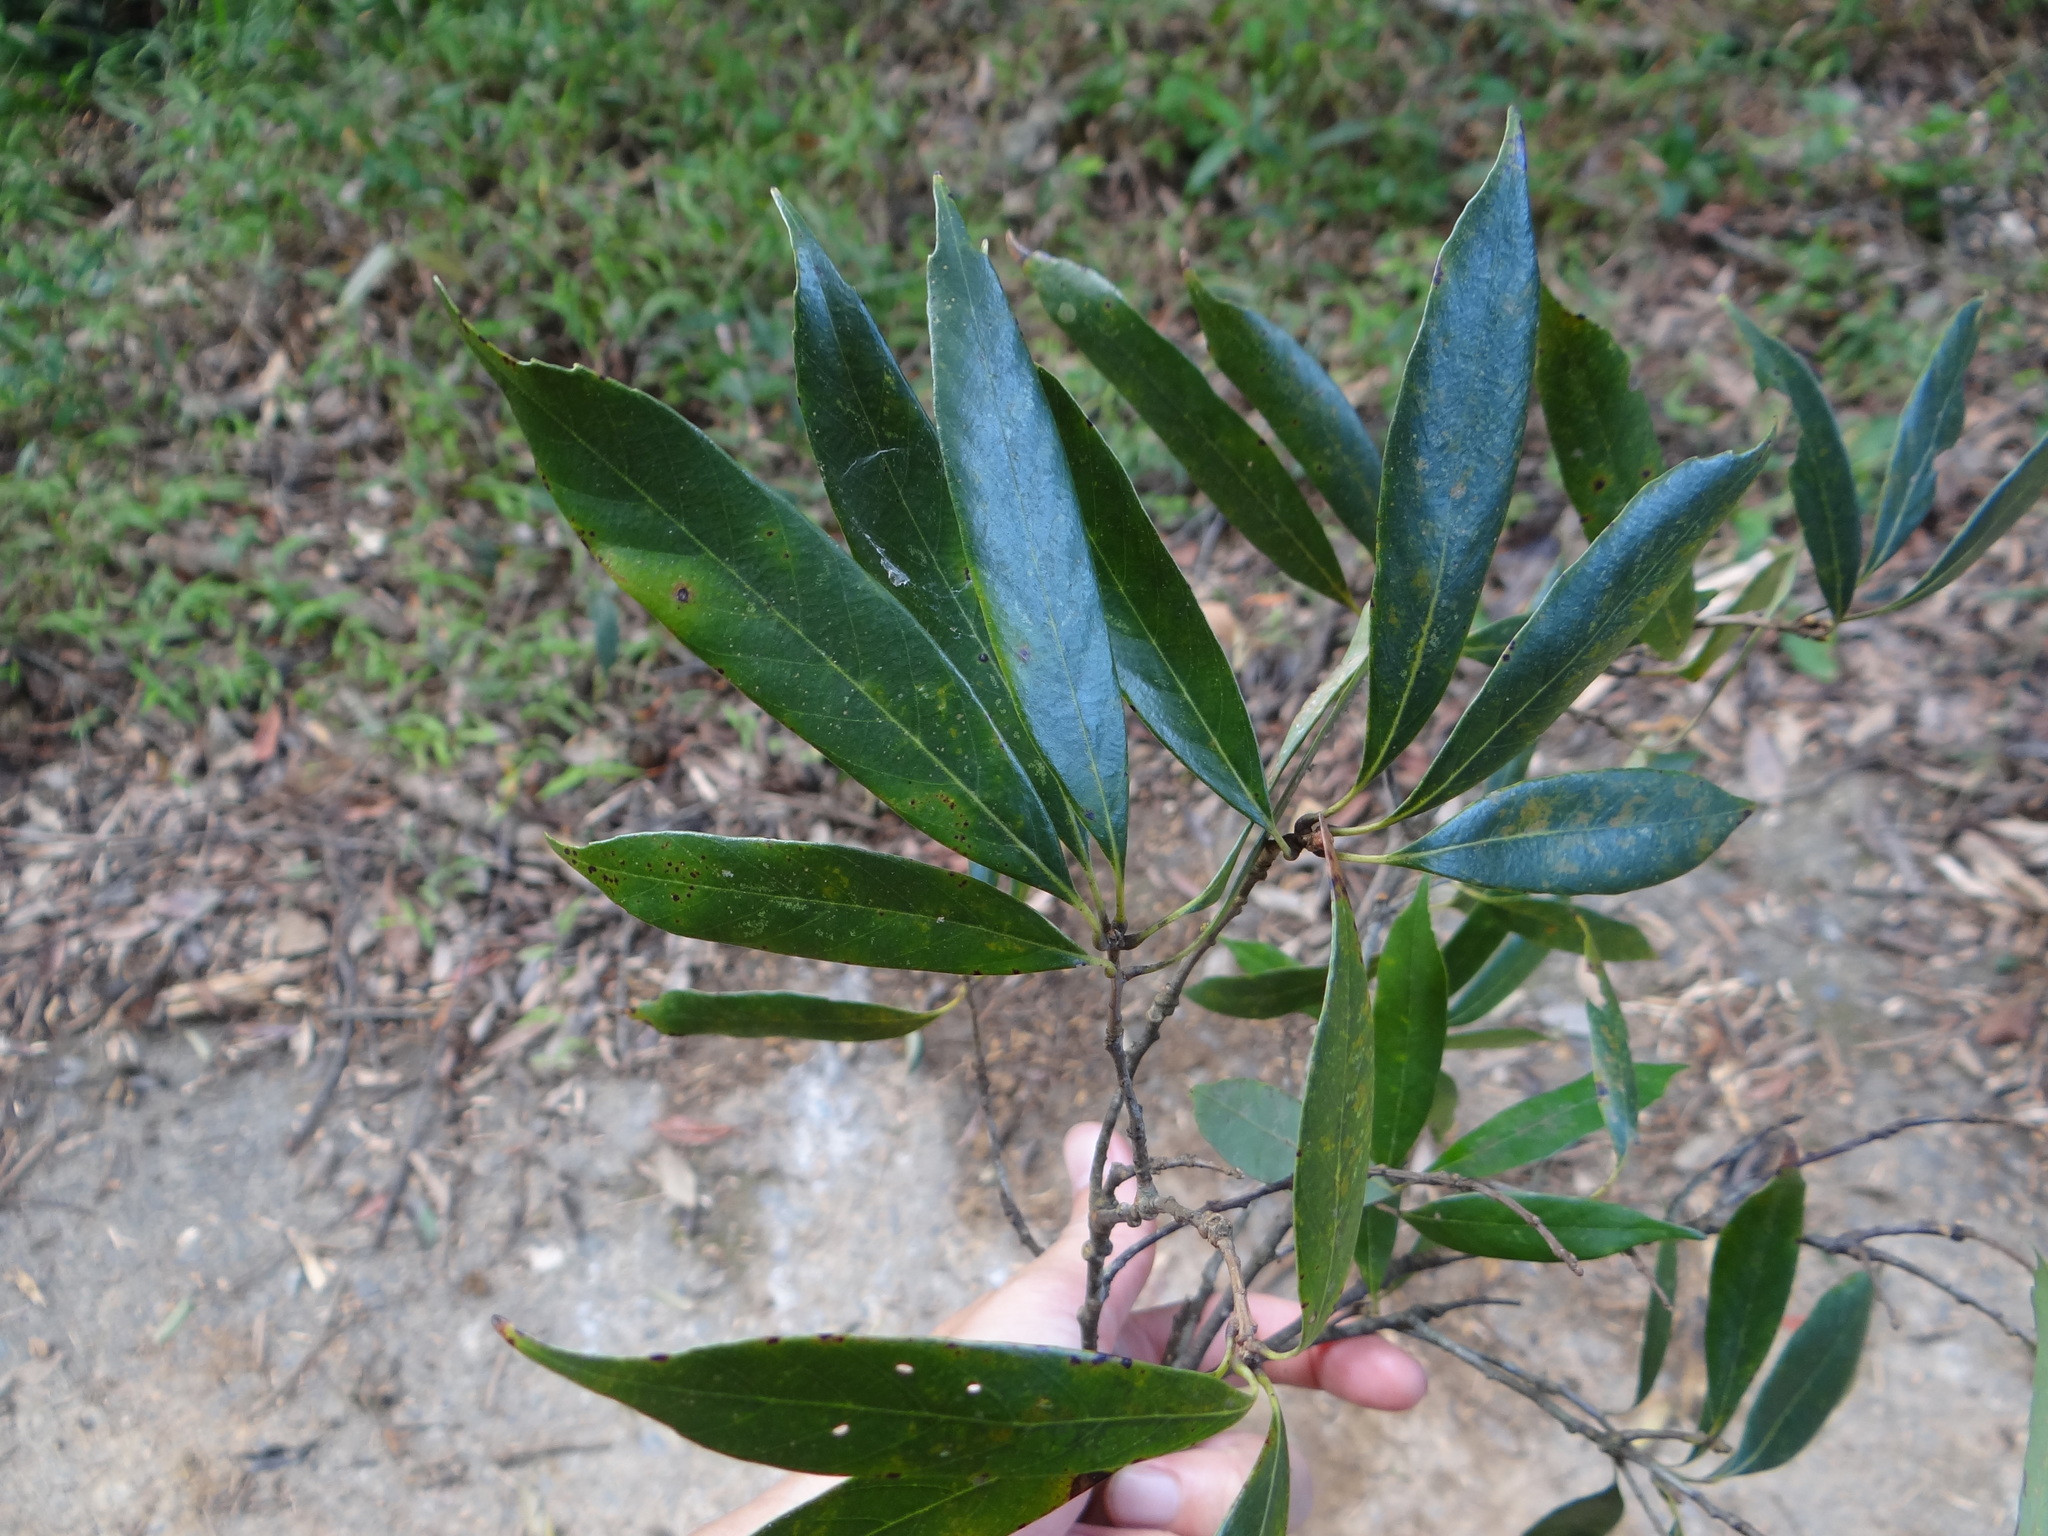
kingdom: Plantae
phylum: Tracheophyta
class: Magnoliopsida
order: Fagales
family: Fagaceae
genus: Quercus
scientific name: Quercus pachyloma
